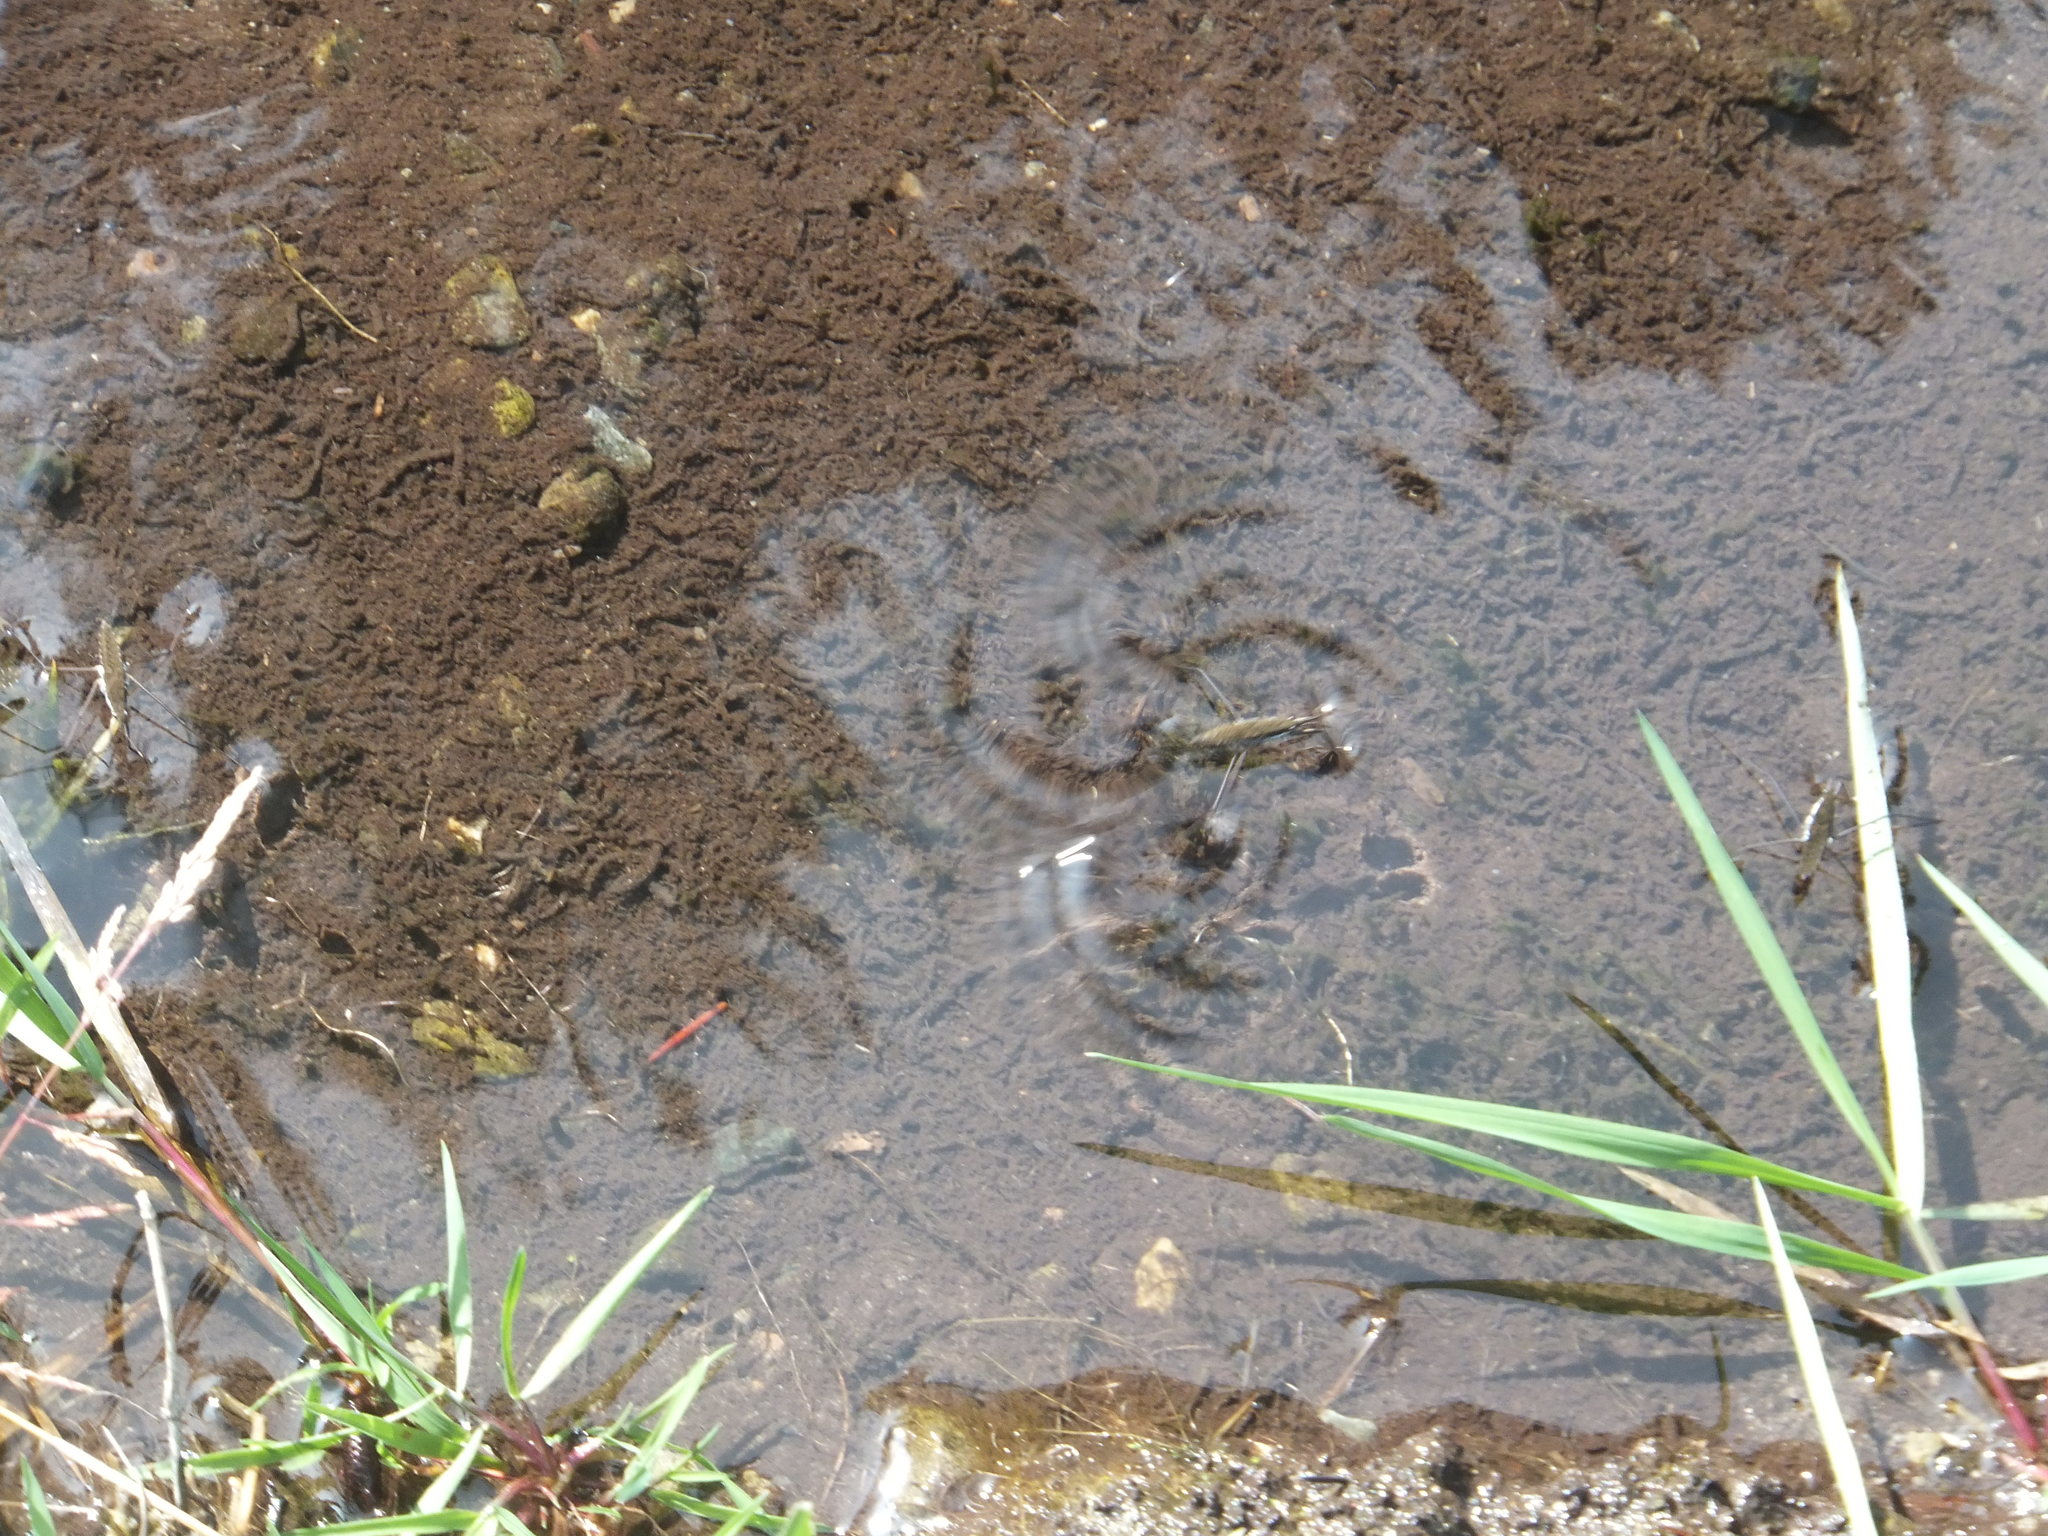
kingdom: Animalia
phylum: Arthropoda
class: Insecta
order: Hemiptera
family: Gerridae
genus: Aquarius
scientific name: Aquarius remigis
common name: Common water strider
